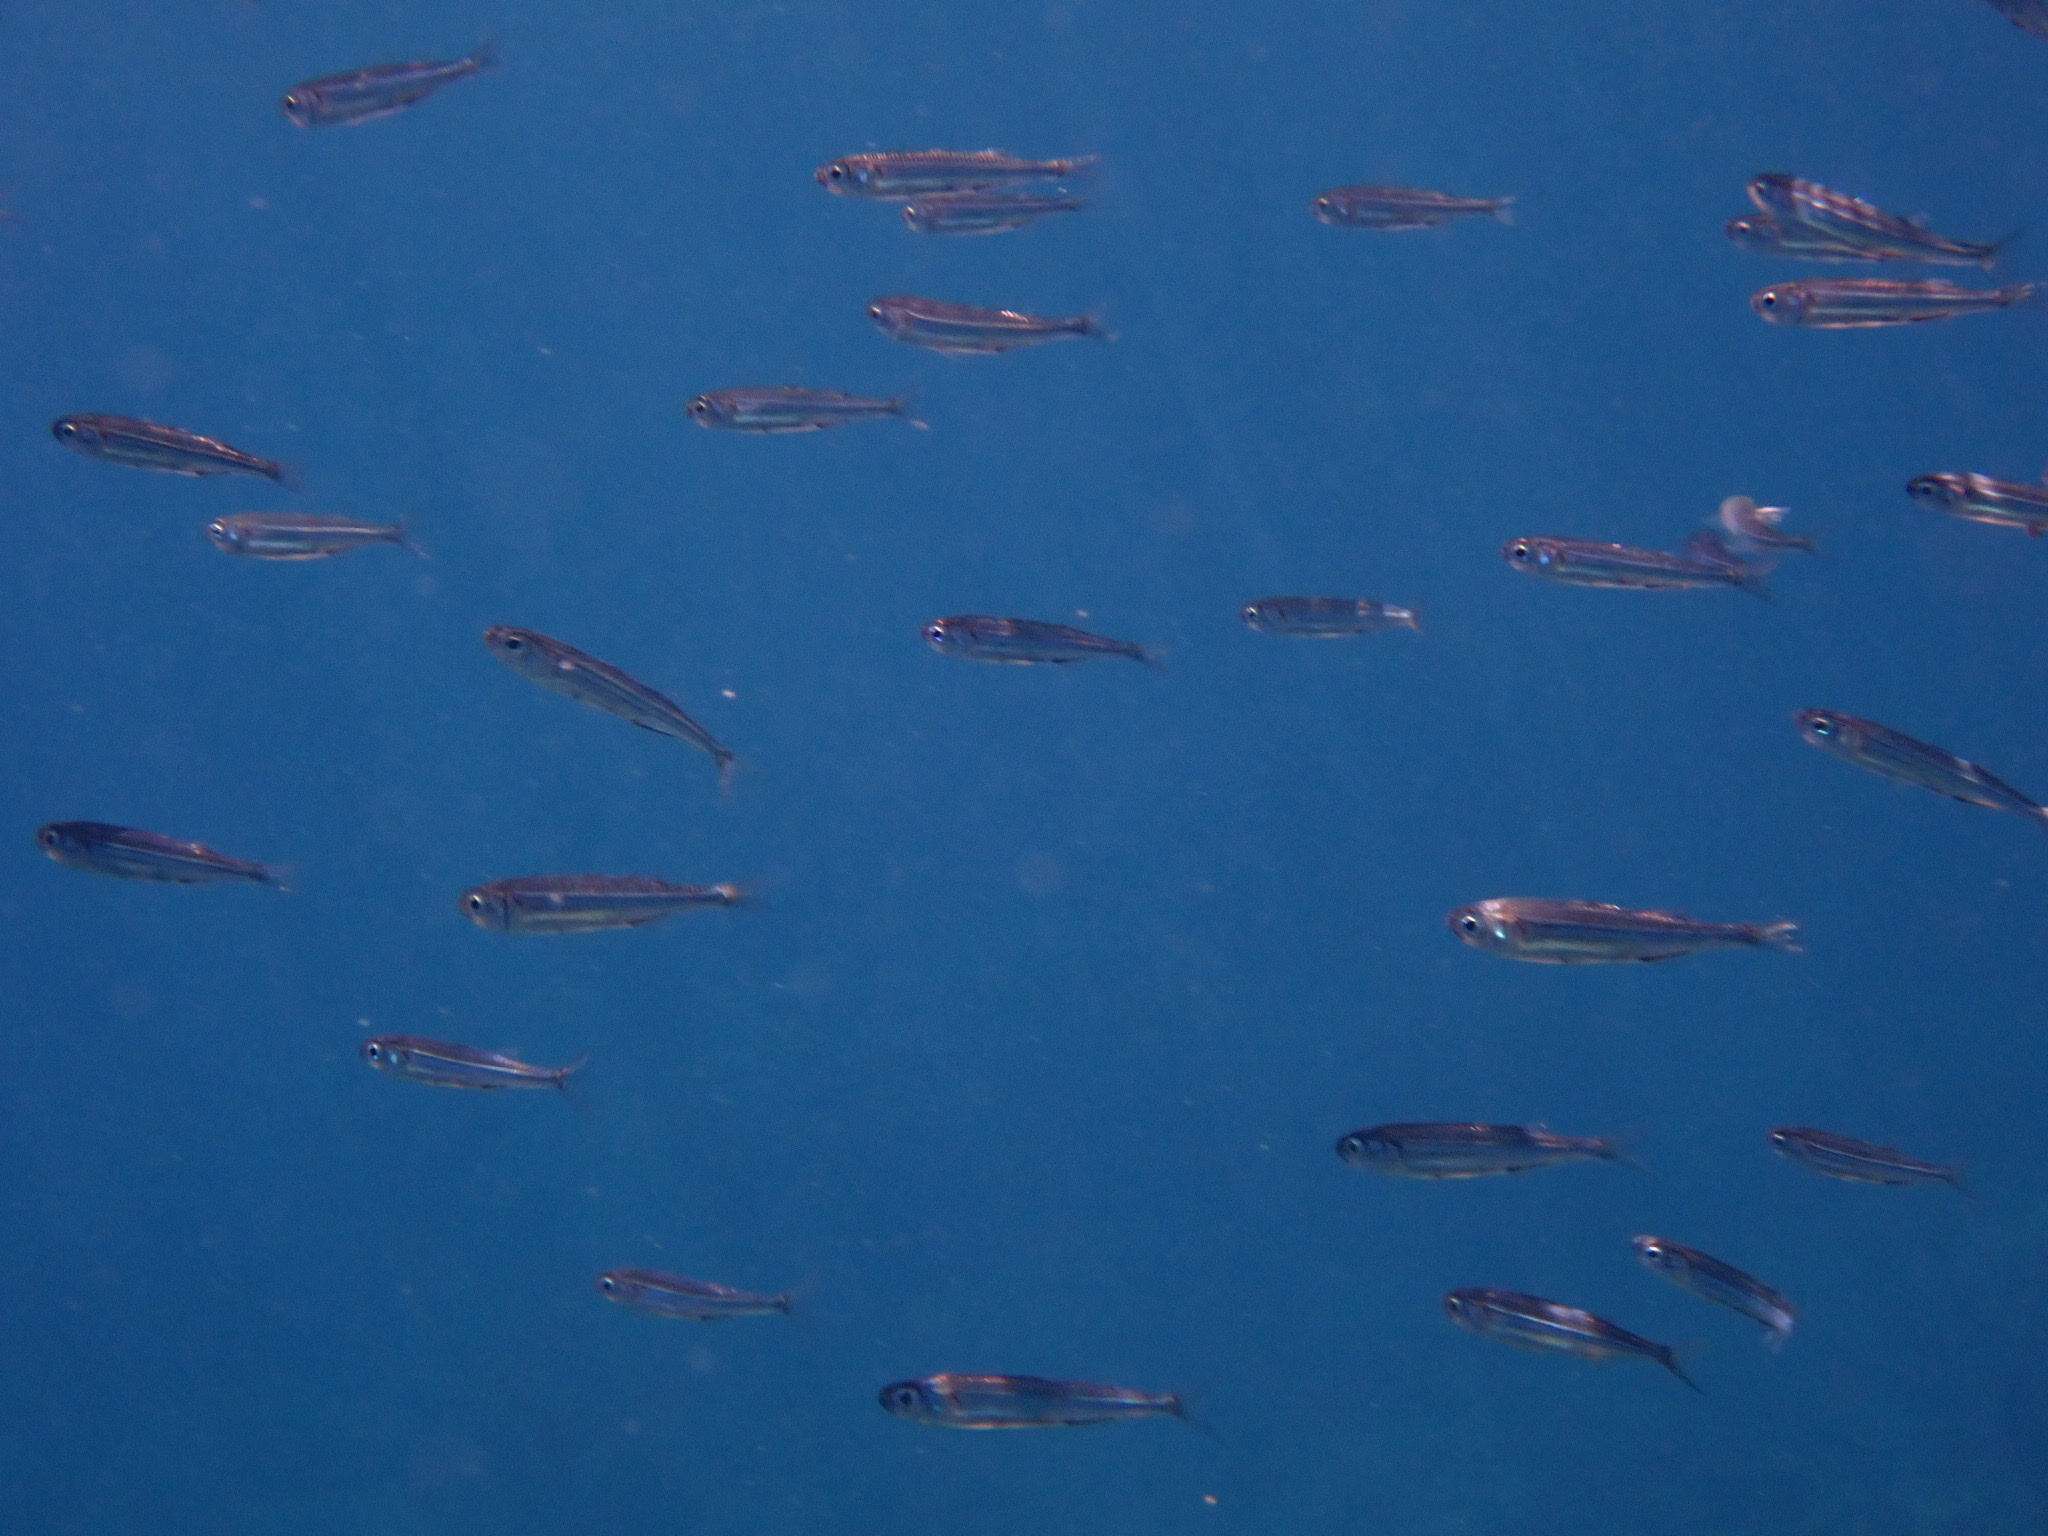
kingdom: Animalia
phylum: Chordata
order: Atheriniformes
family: Atherinidae
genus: Atherina
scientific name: Atherina boyeri
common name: Big-scale sand smelt
